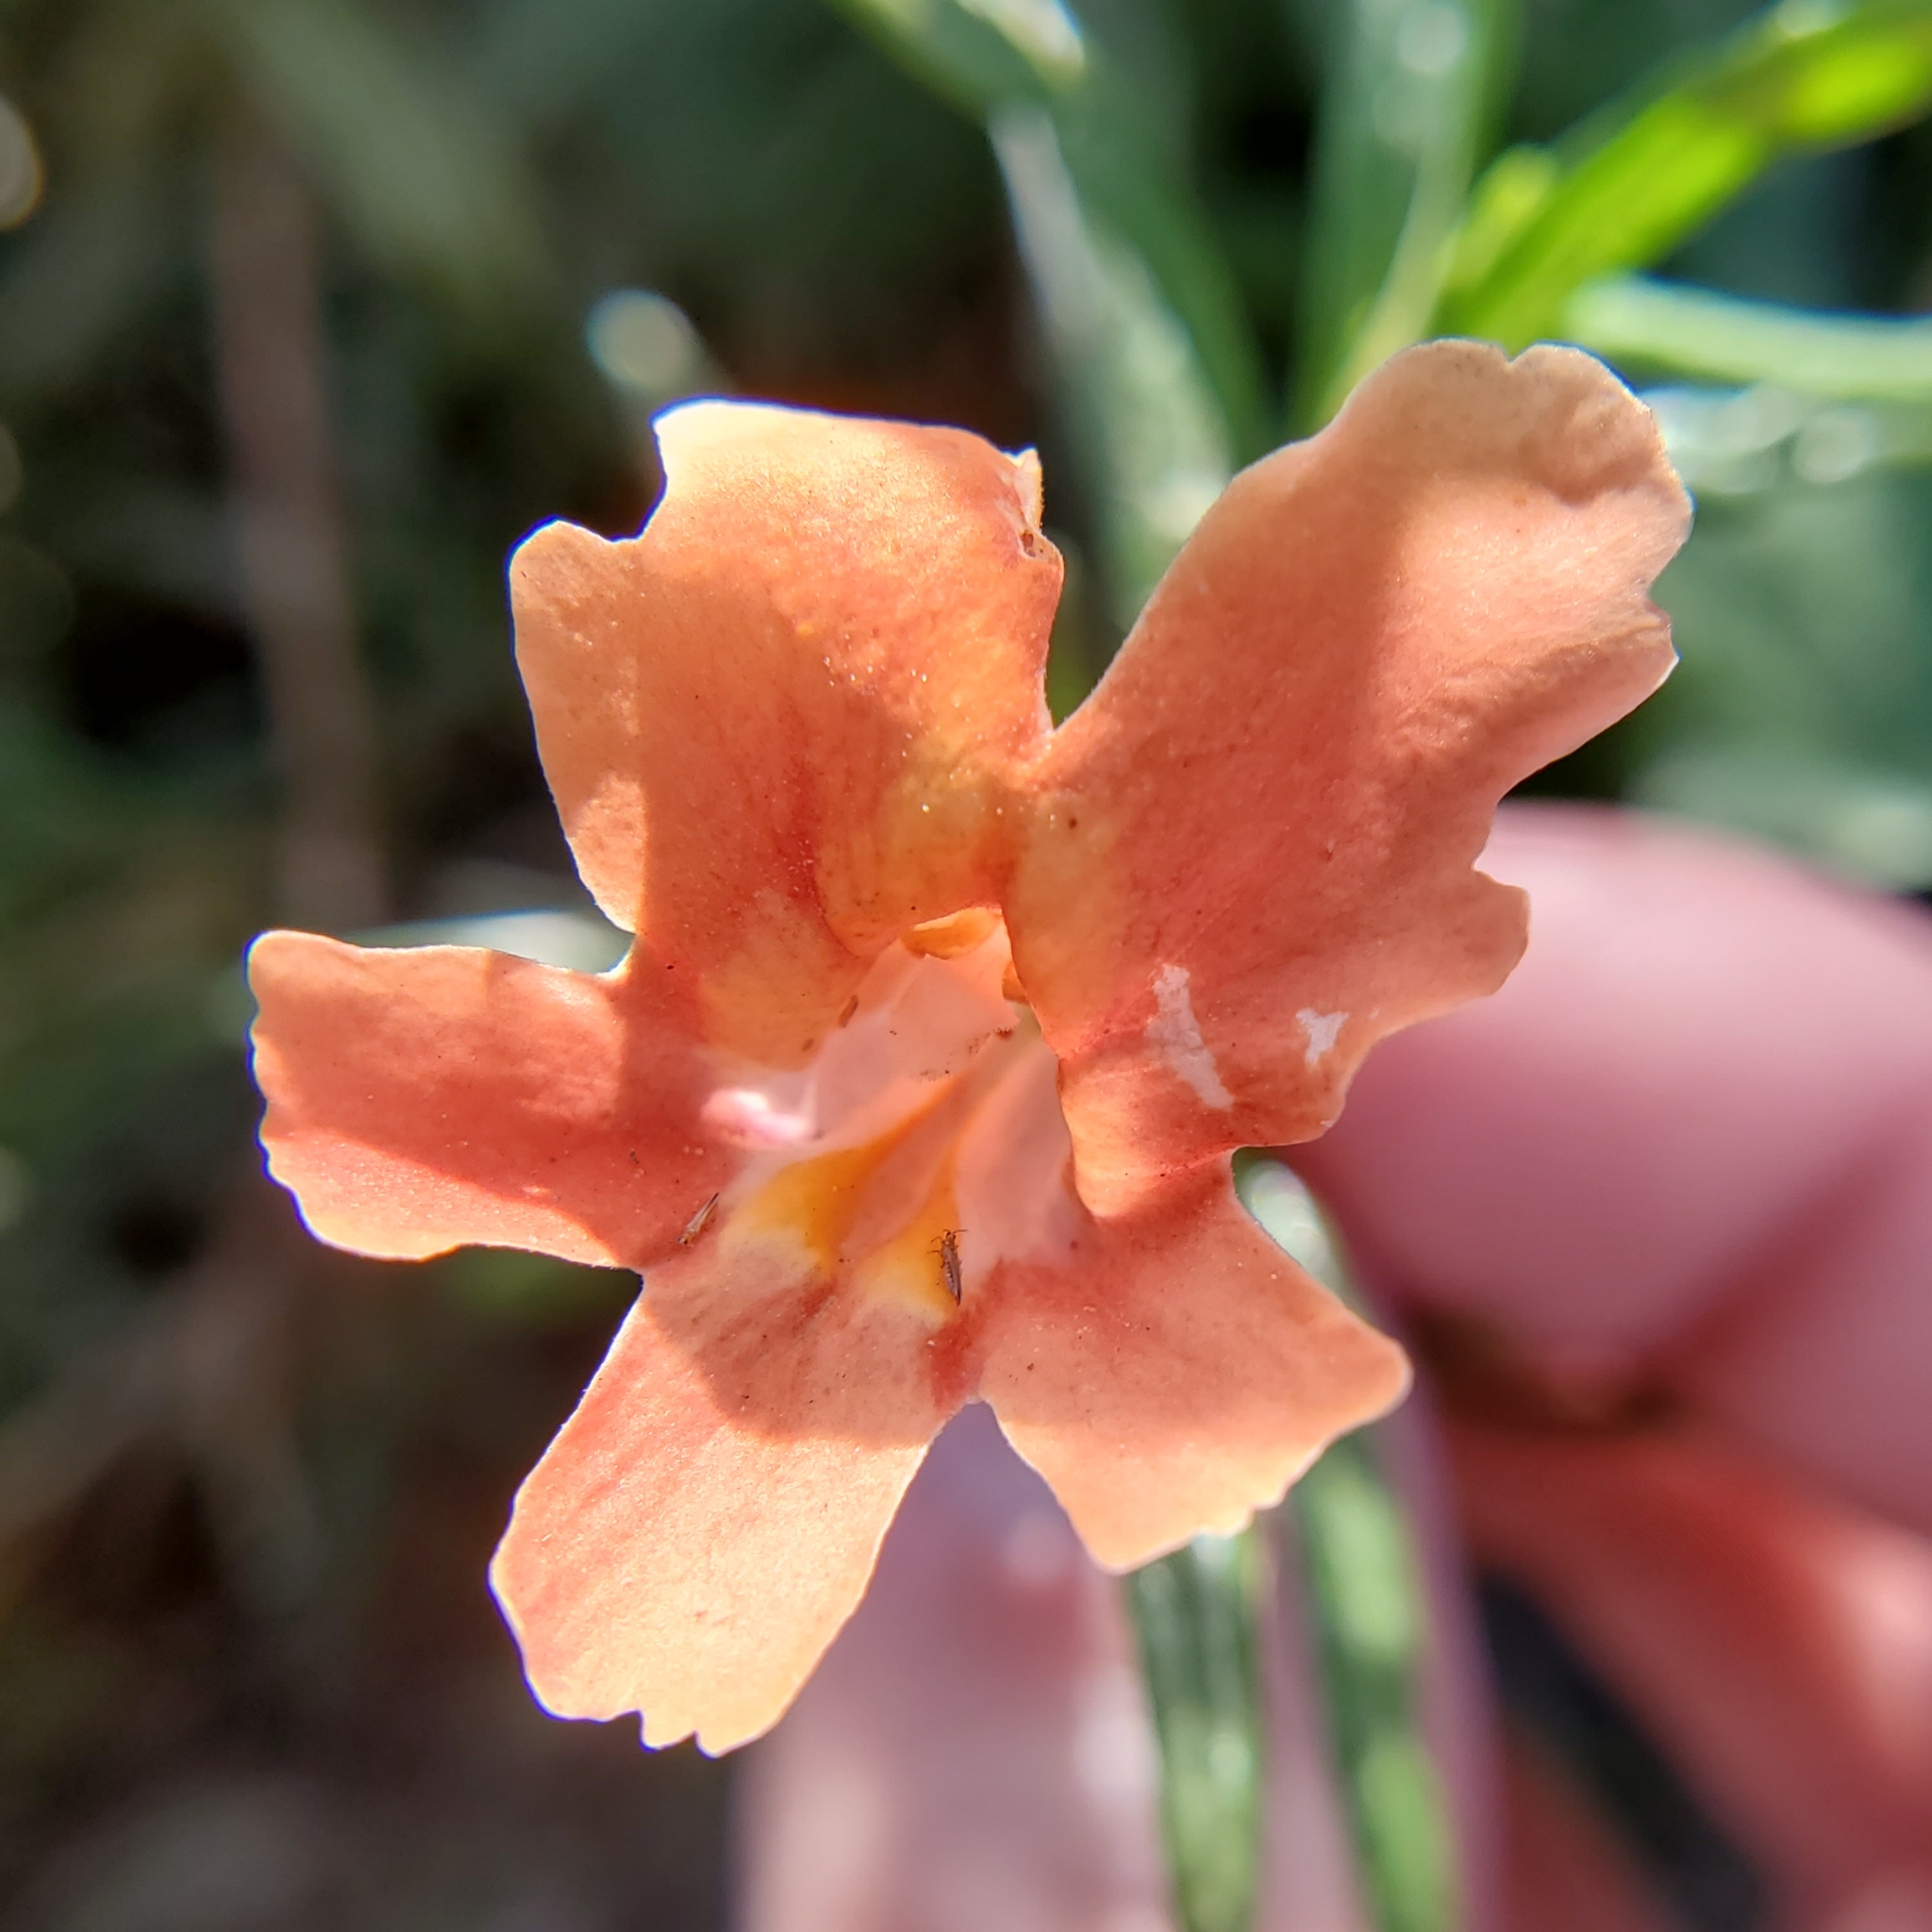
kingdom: Plantae
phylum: Tracheophyta
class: Magnoliopsida
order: Lamiales
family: Phrymaceae
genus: Diplacus
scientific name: Diplacus australis
